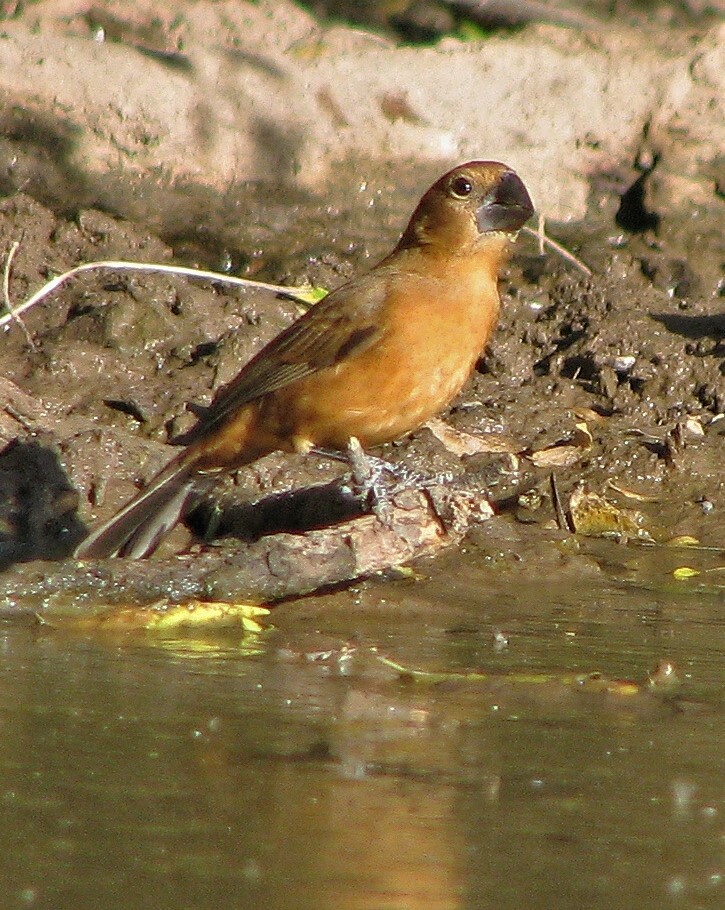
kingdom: Animalia
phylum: Chordata
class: Aves
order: Passeriformes
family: Cardinalidae
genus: Cyanoloxia
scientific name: Cyanoloxia brissonii
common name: Ultramarine grosbeak
